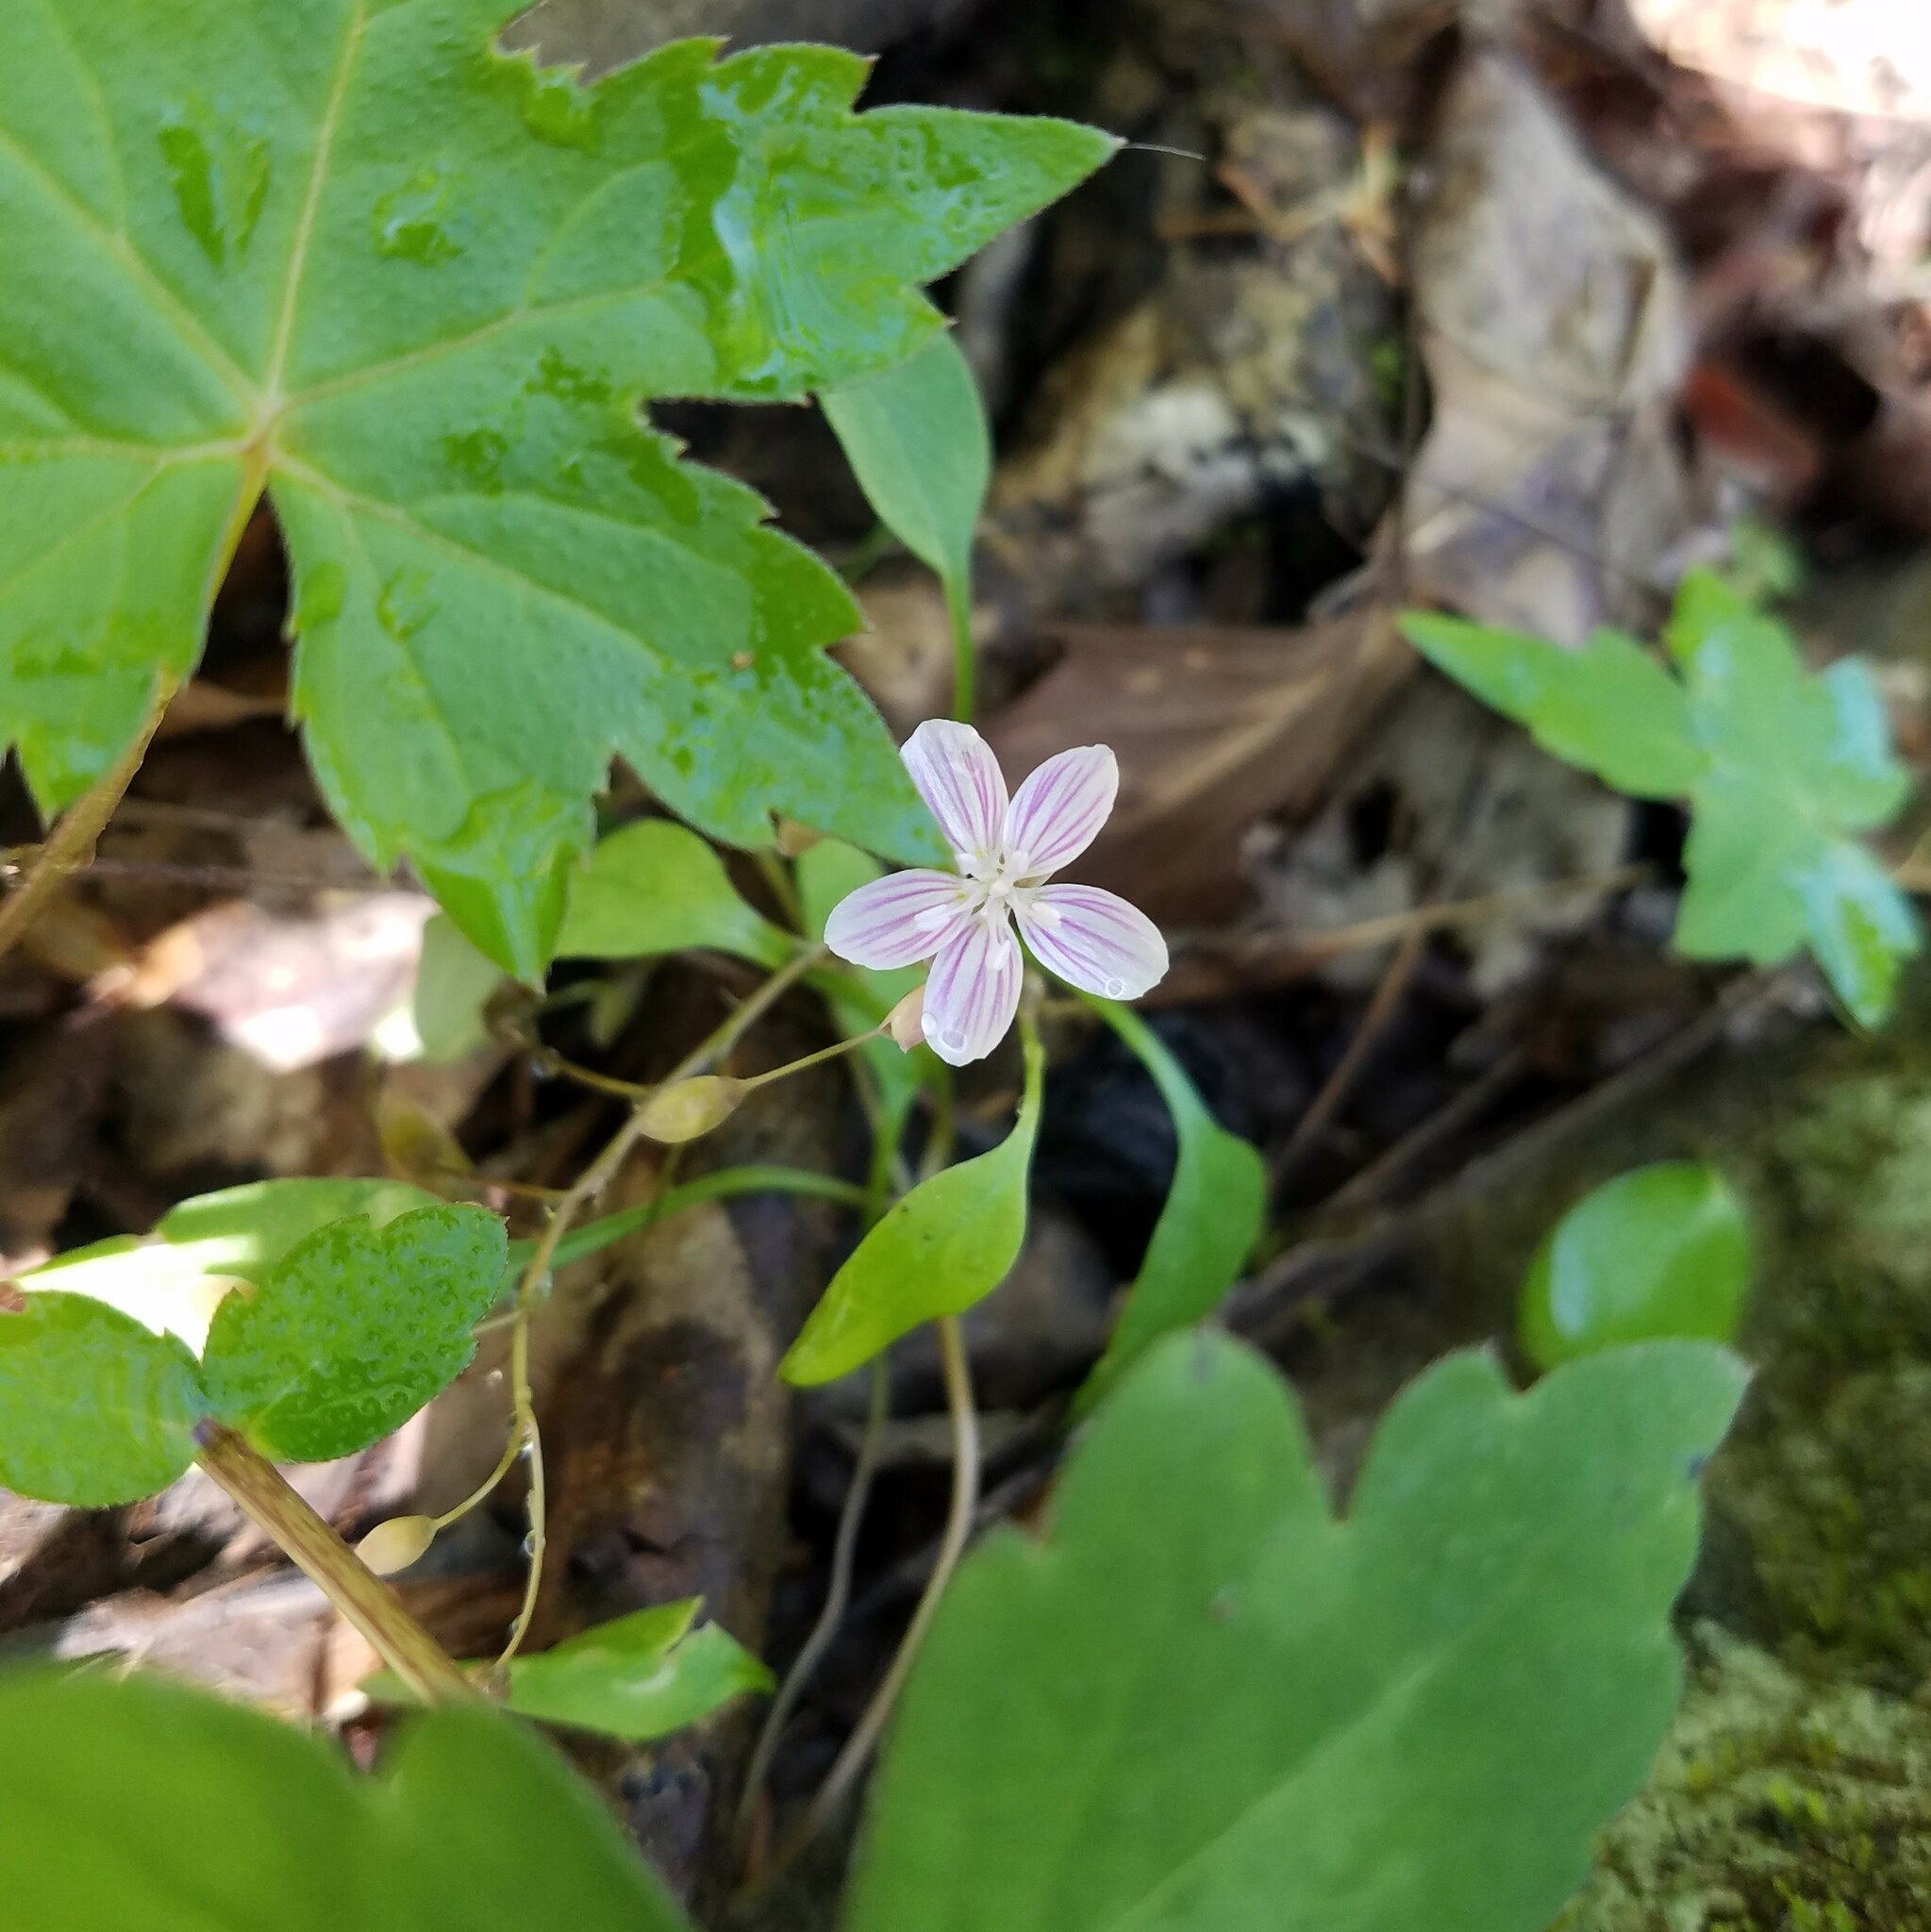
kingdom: Plantae
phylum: Tracheophyta
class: Magnoliopsida
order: Caryophyllales
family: Montiaceae
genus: Claytonia
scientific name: Claytonia caroliniana
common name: Carolina spring beauty
